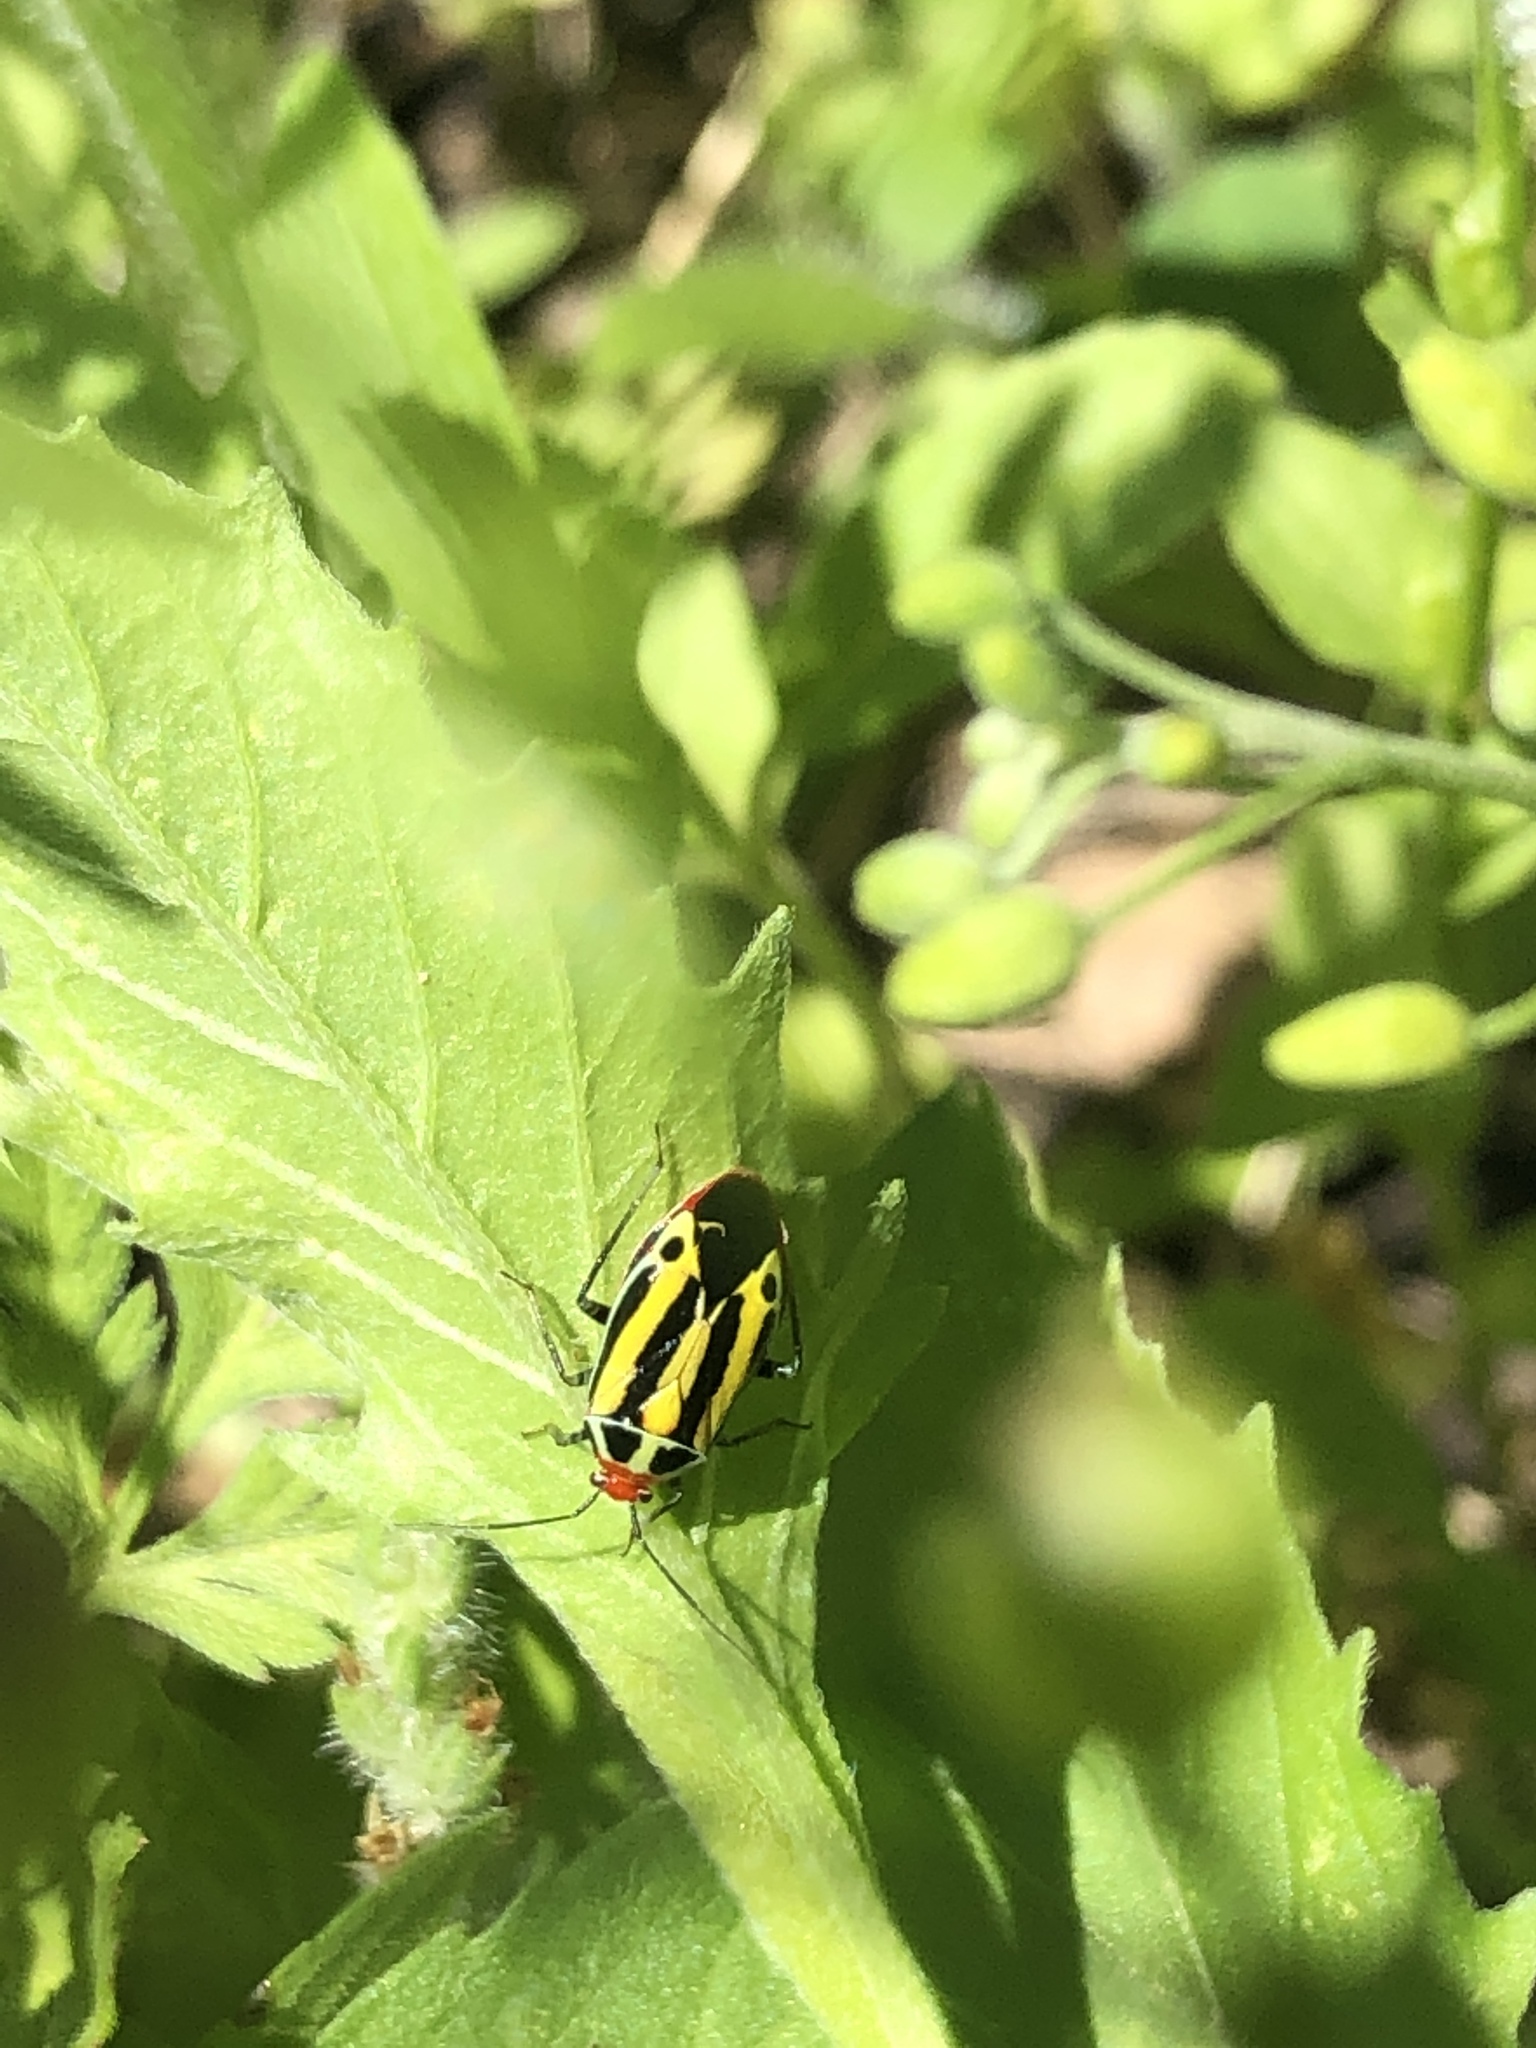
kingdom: Animalia
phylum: Arthropoda
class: Insecta
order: Hemiptera
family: Miridae
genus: Poecilocapsus
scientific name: Poecilocapsus lineatus
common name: Four-lined plant bug
